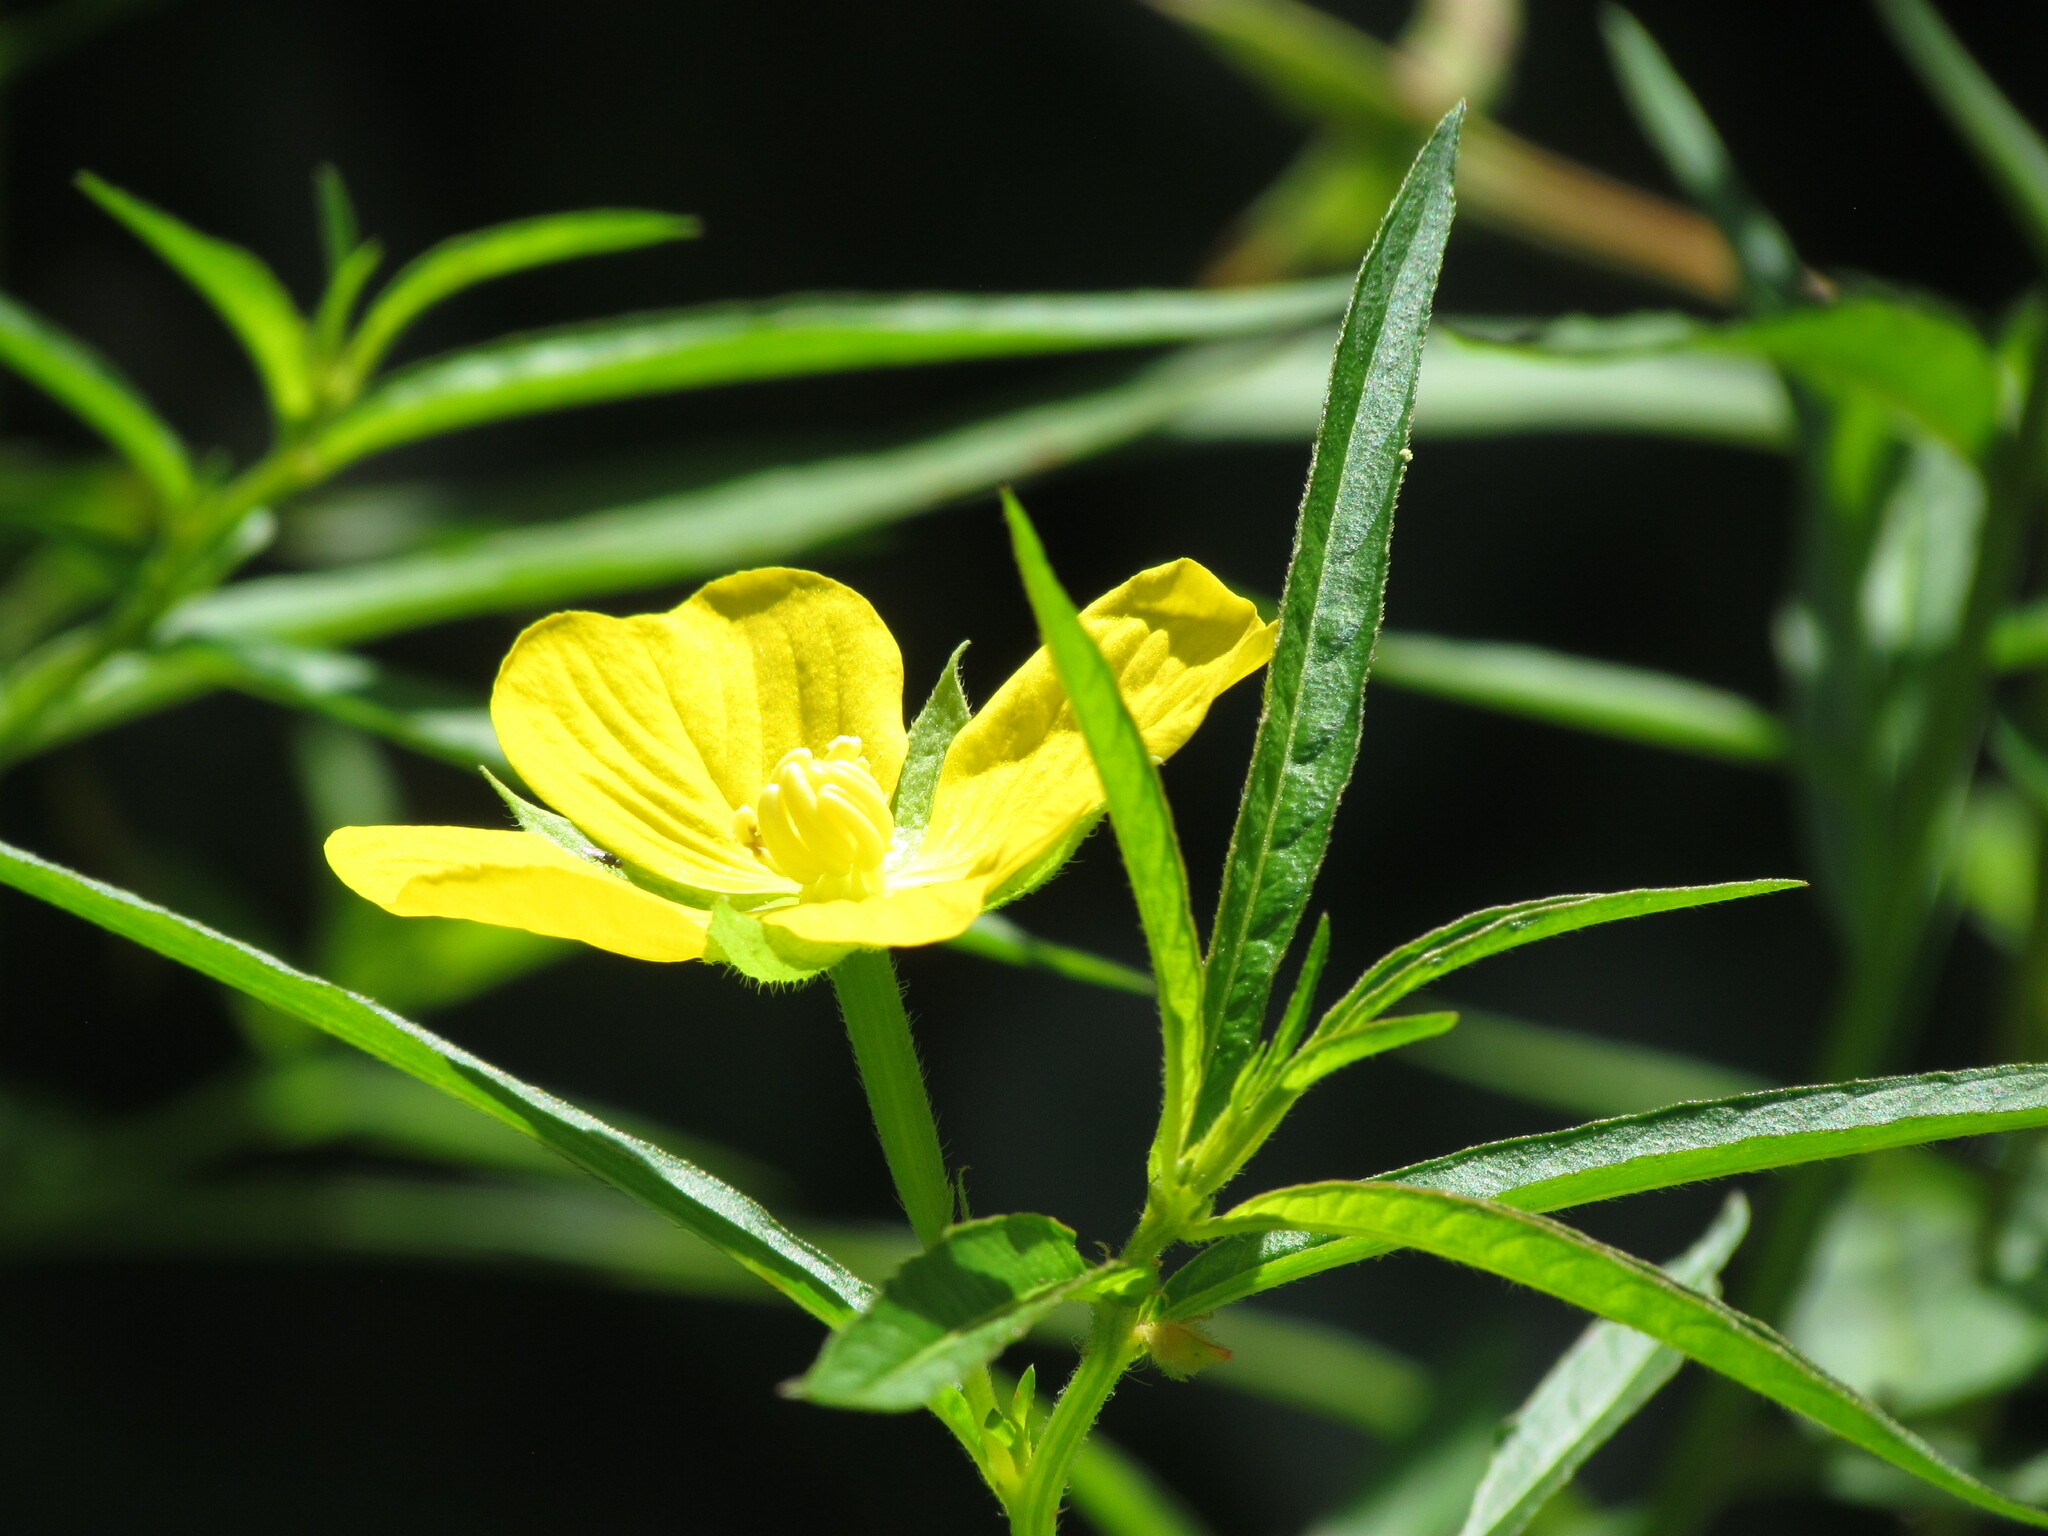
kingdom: Plantae
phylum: Tracheophyta
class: Magnoliopsida
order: Myrtales
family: Onagraceae
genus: Ludwigia
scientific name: Ludwigia bonariensis
